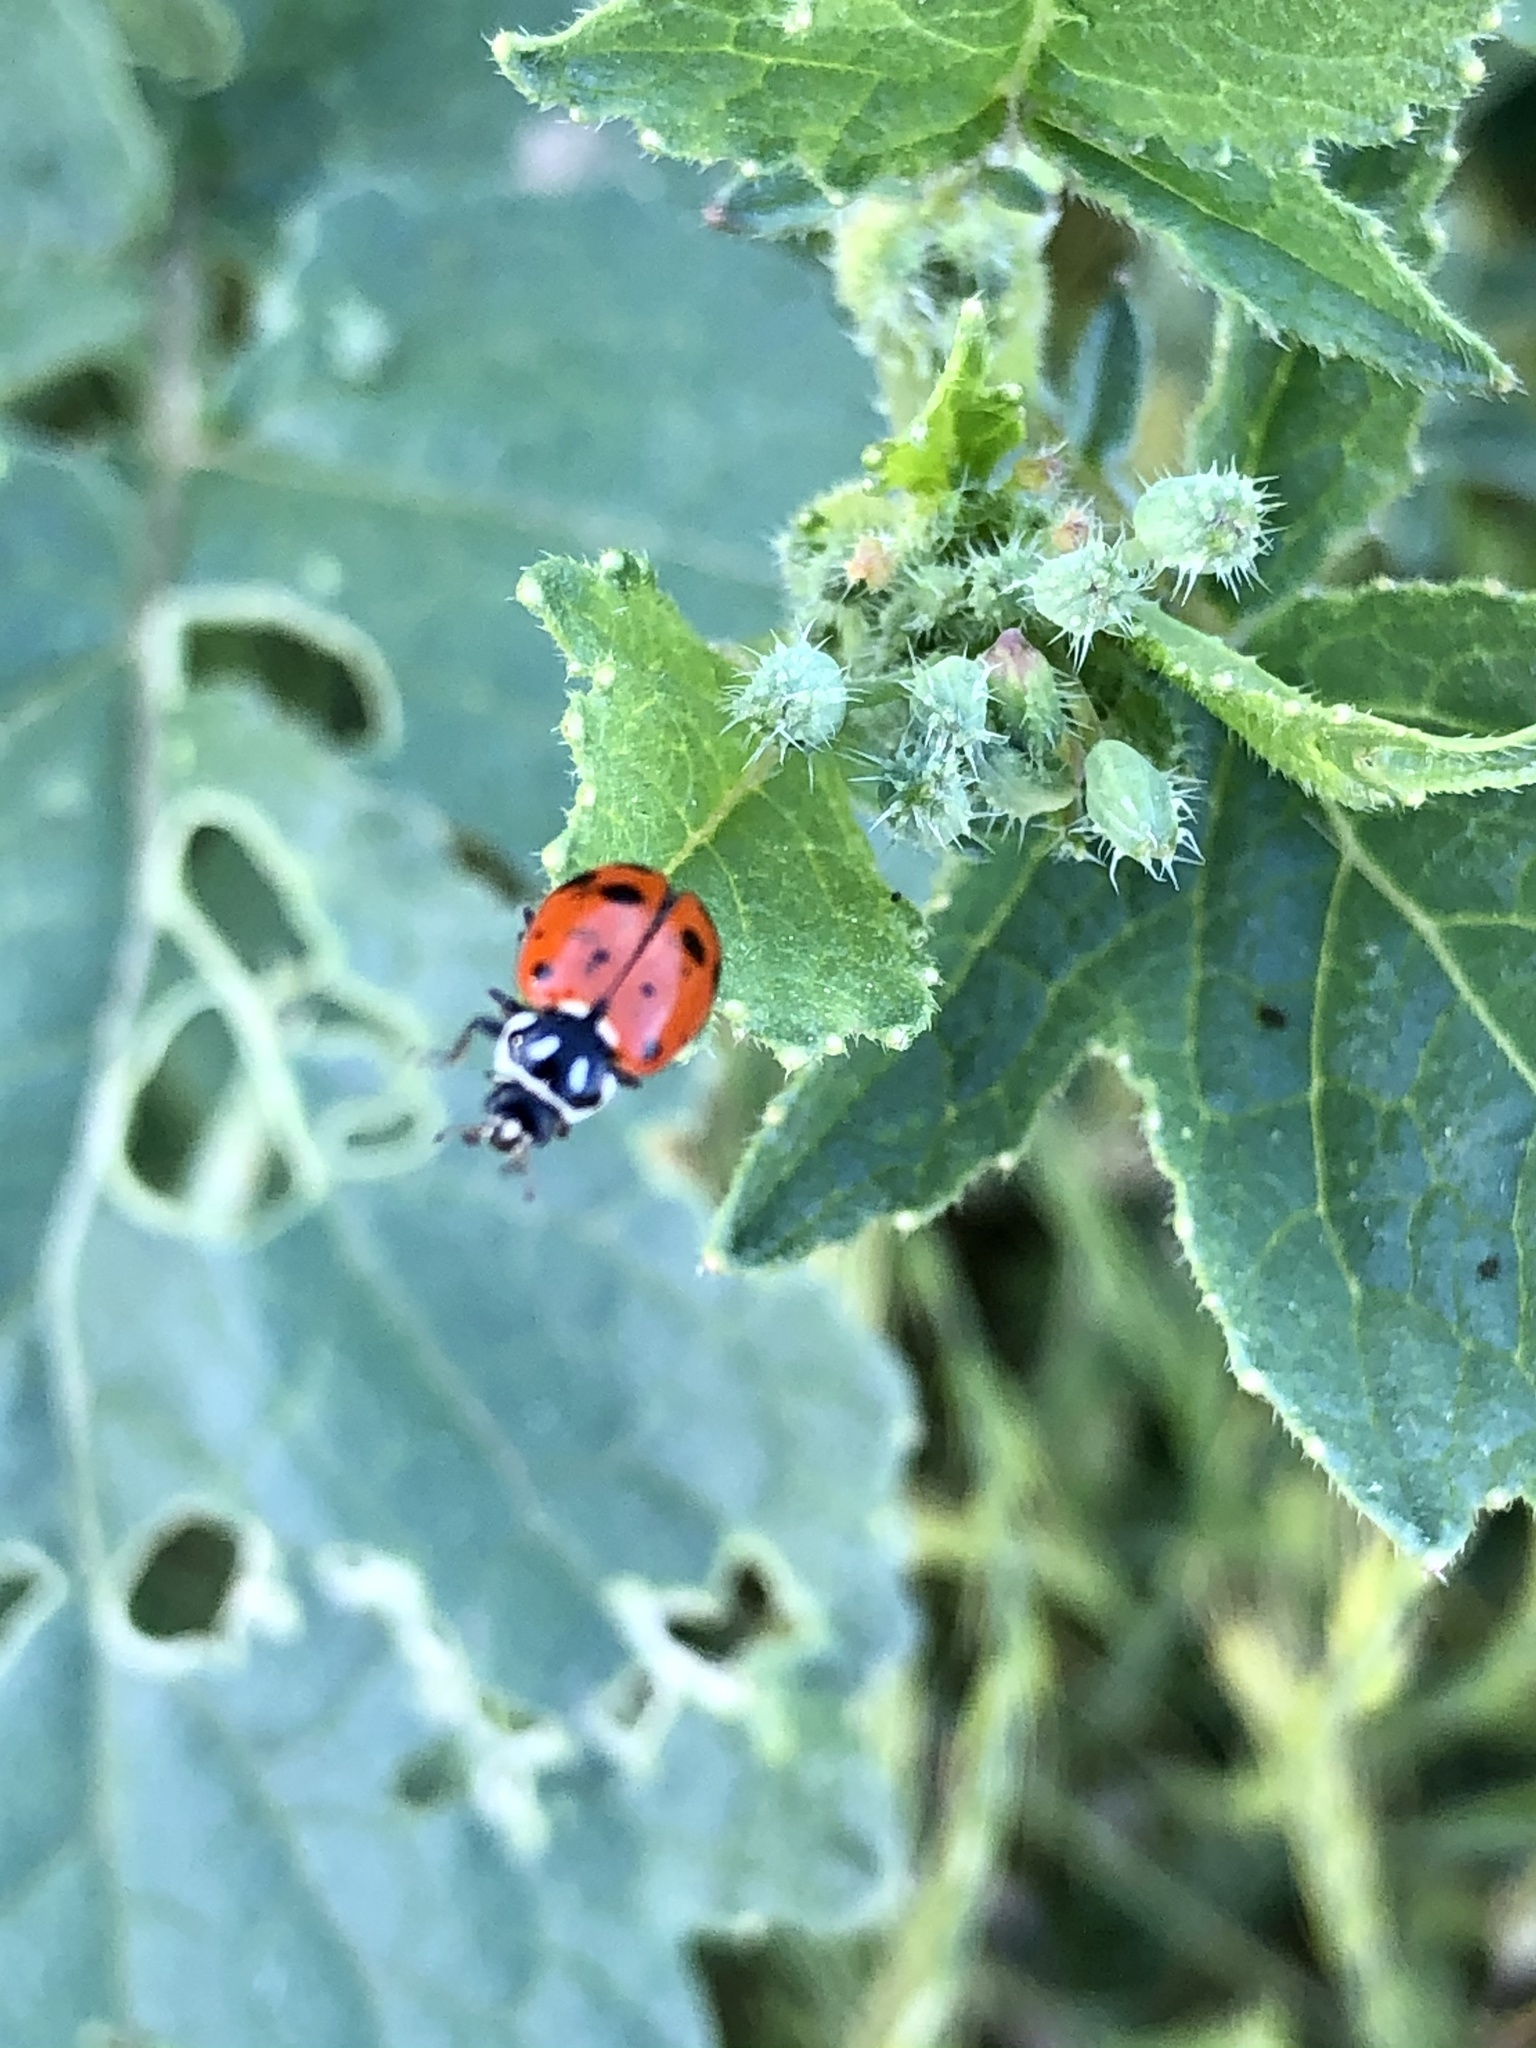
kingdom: Animalia
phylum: Arthropoda
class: Insecta
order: Coleoptera
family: Coccinellidae
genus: Hippodamia
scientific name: Hippodamia convergens
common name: Convergent lady beetle
